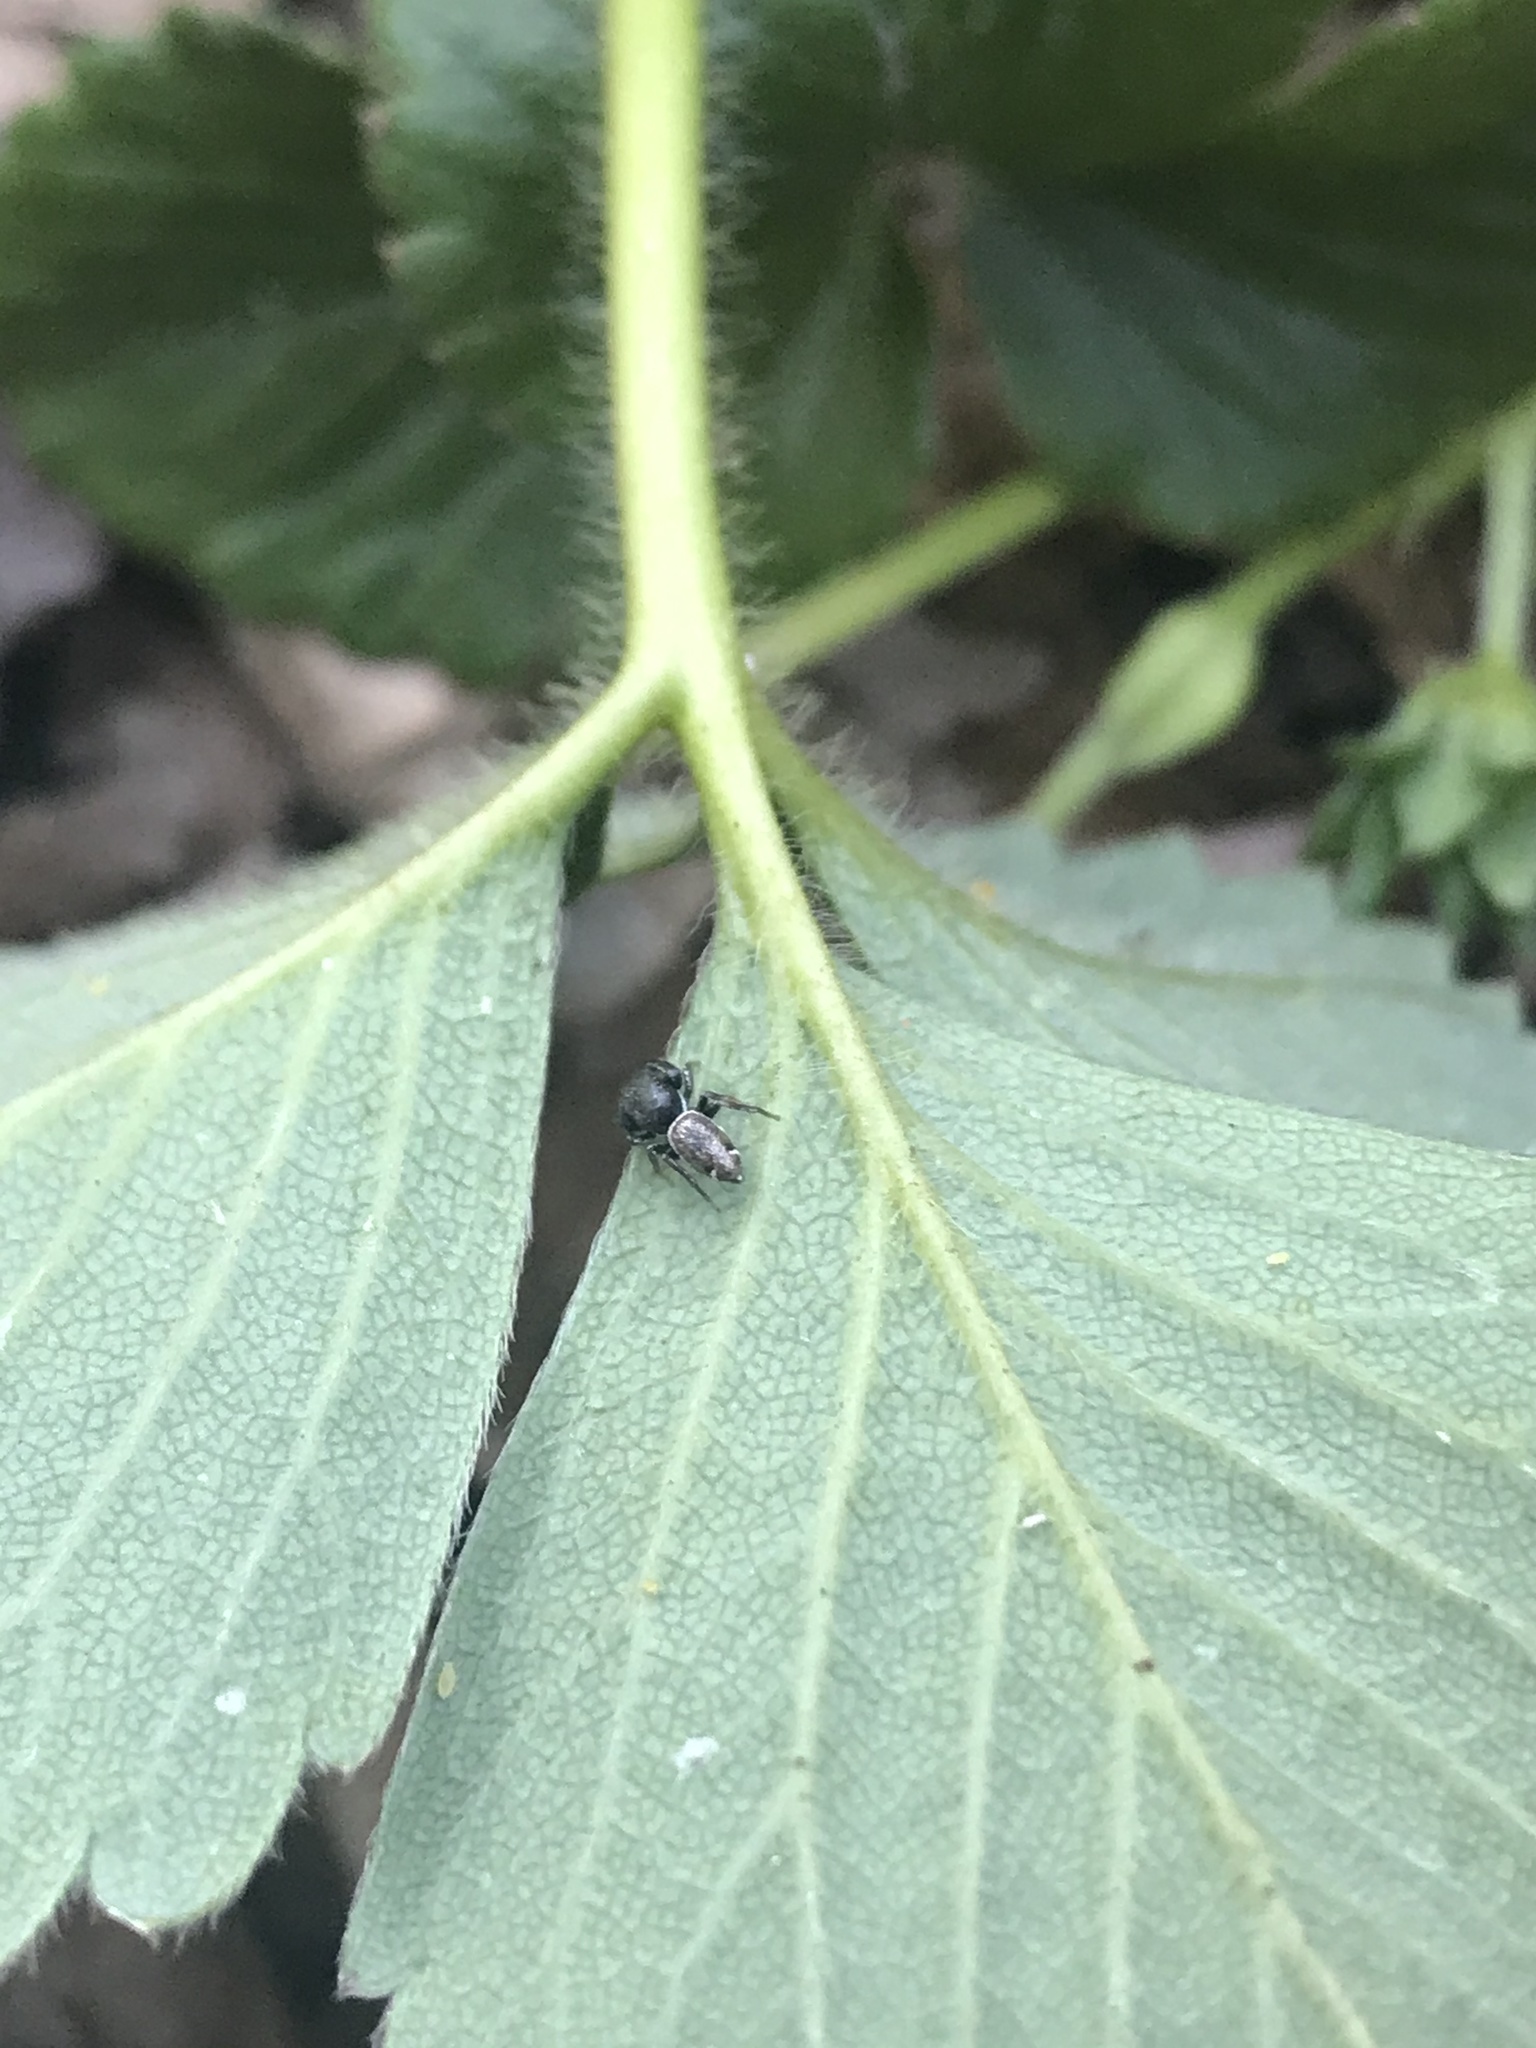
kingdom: Animalia
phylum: Arthropoda
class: Arachnida
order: Araneae
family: Salticidae
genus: Sassacus
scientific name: Sassacus vitis
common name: Jumping spiders
